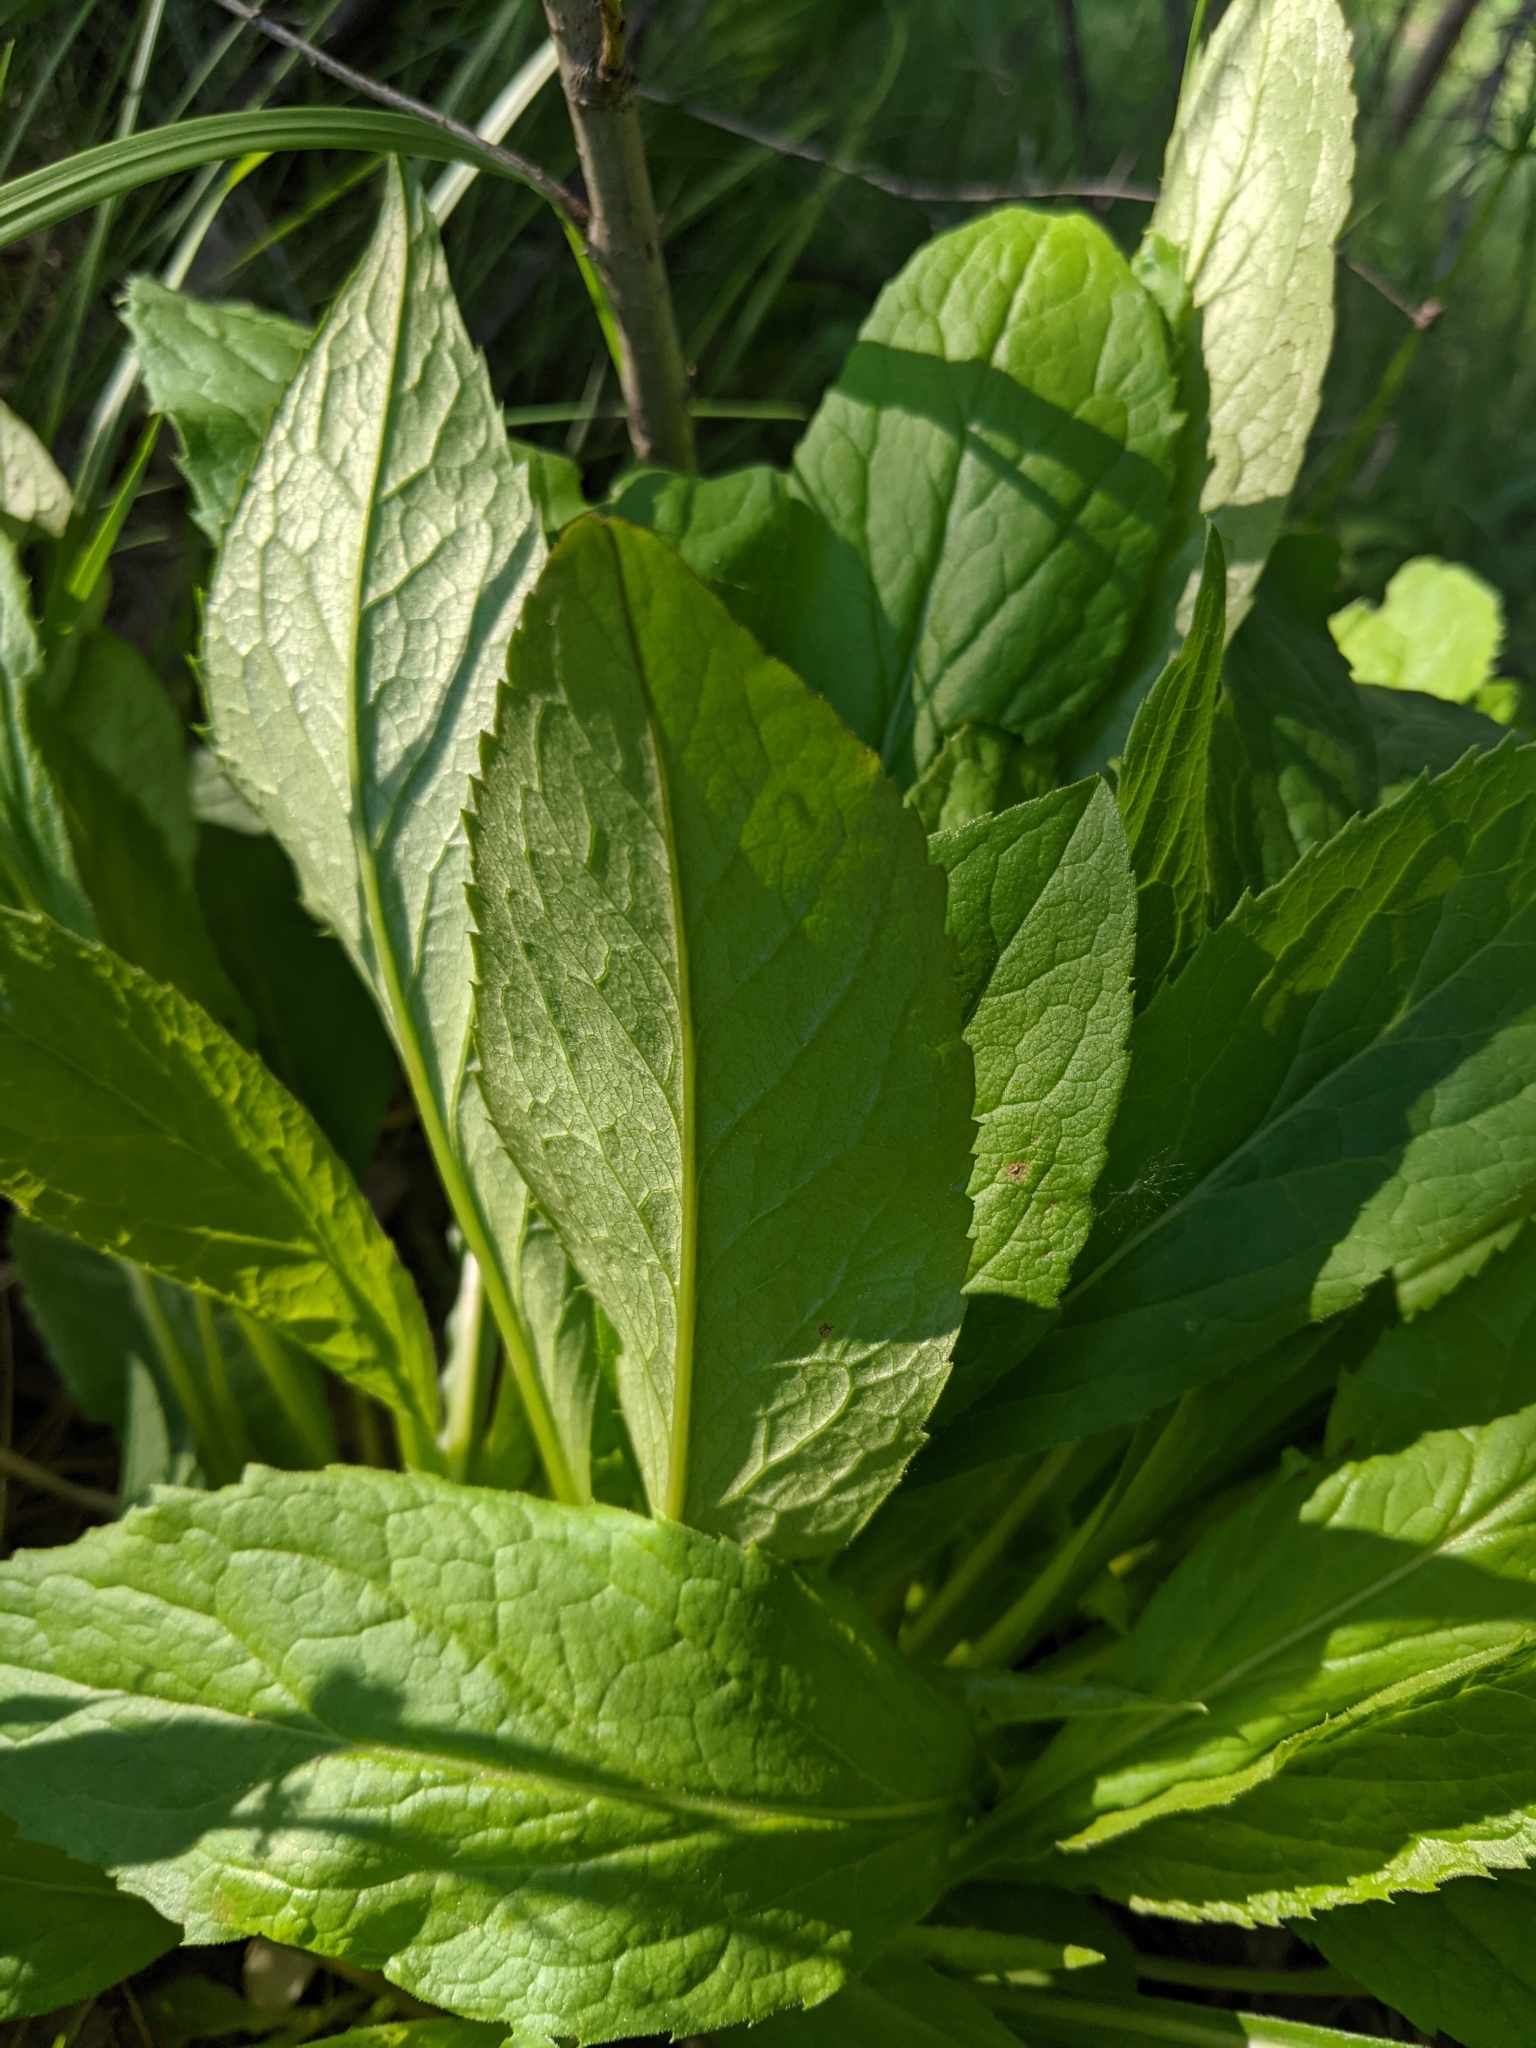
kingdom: Plantae
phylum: Tracheophyta
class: Magnoliopsida
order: Asterales
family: Asteraceae
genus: Solidago
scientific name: Solidago virgaurea
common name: Goldenrod
